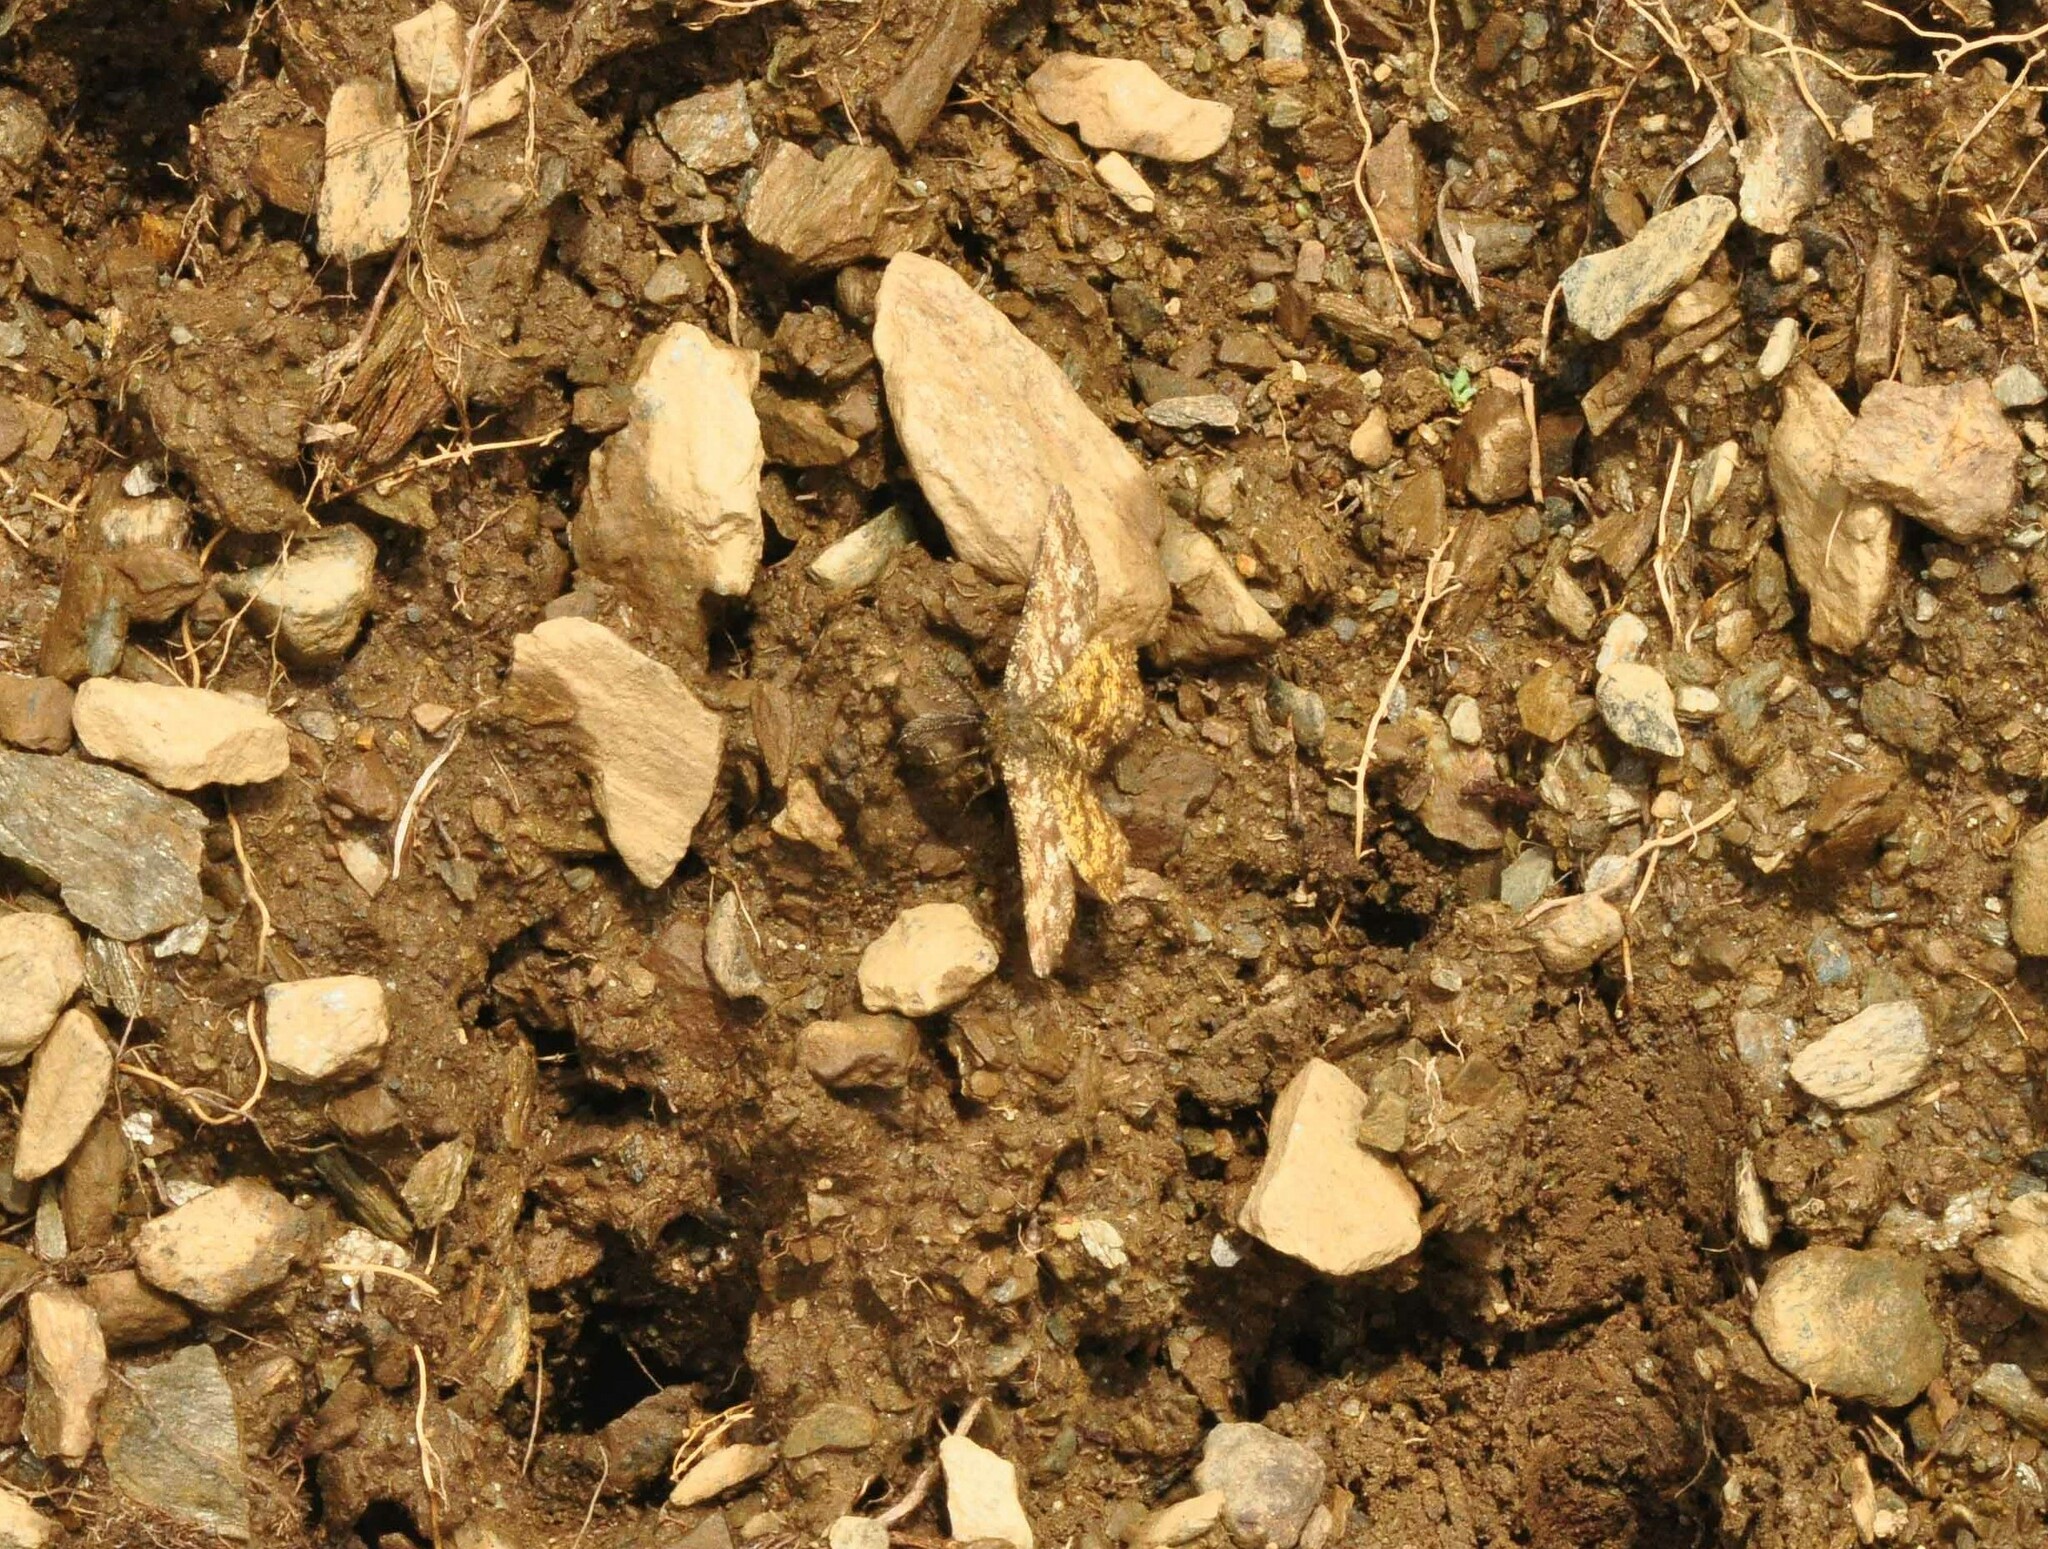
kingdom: Animalia
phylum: Arthropoda
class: Insecta
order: Lepidoptera
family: Geometridae
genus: Ematurga
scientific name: Ematurga atomaria
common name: Common heath
